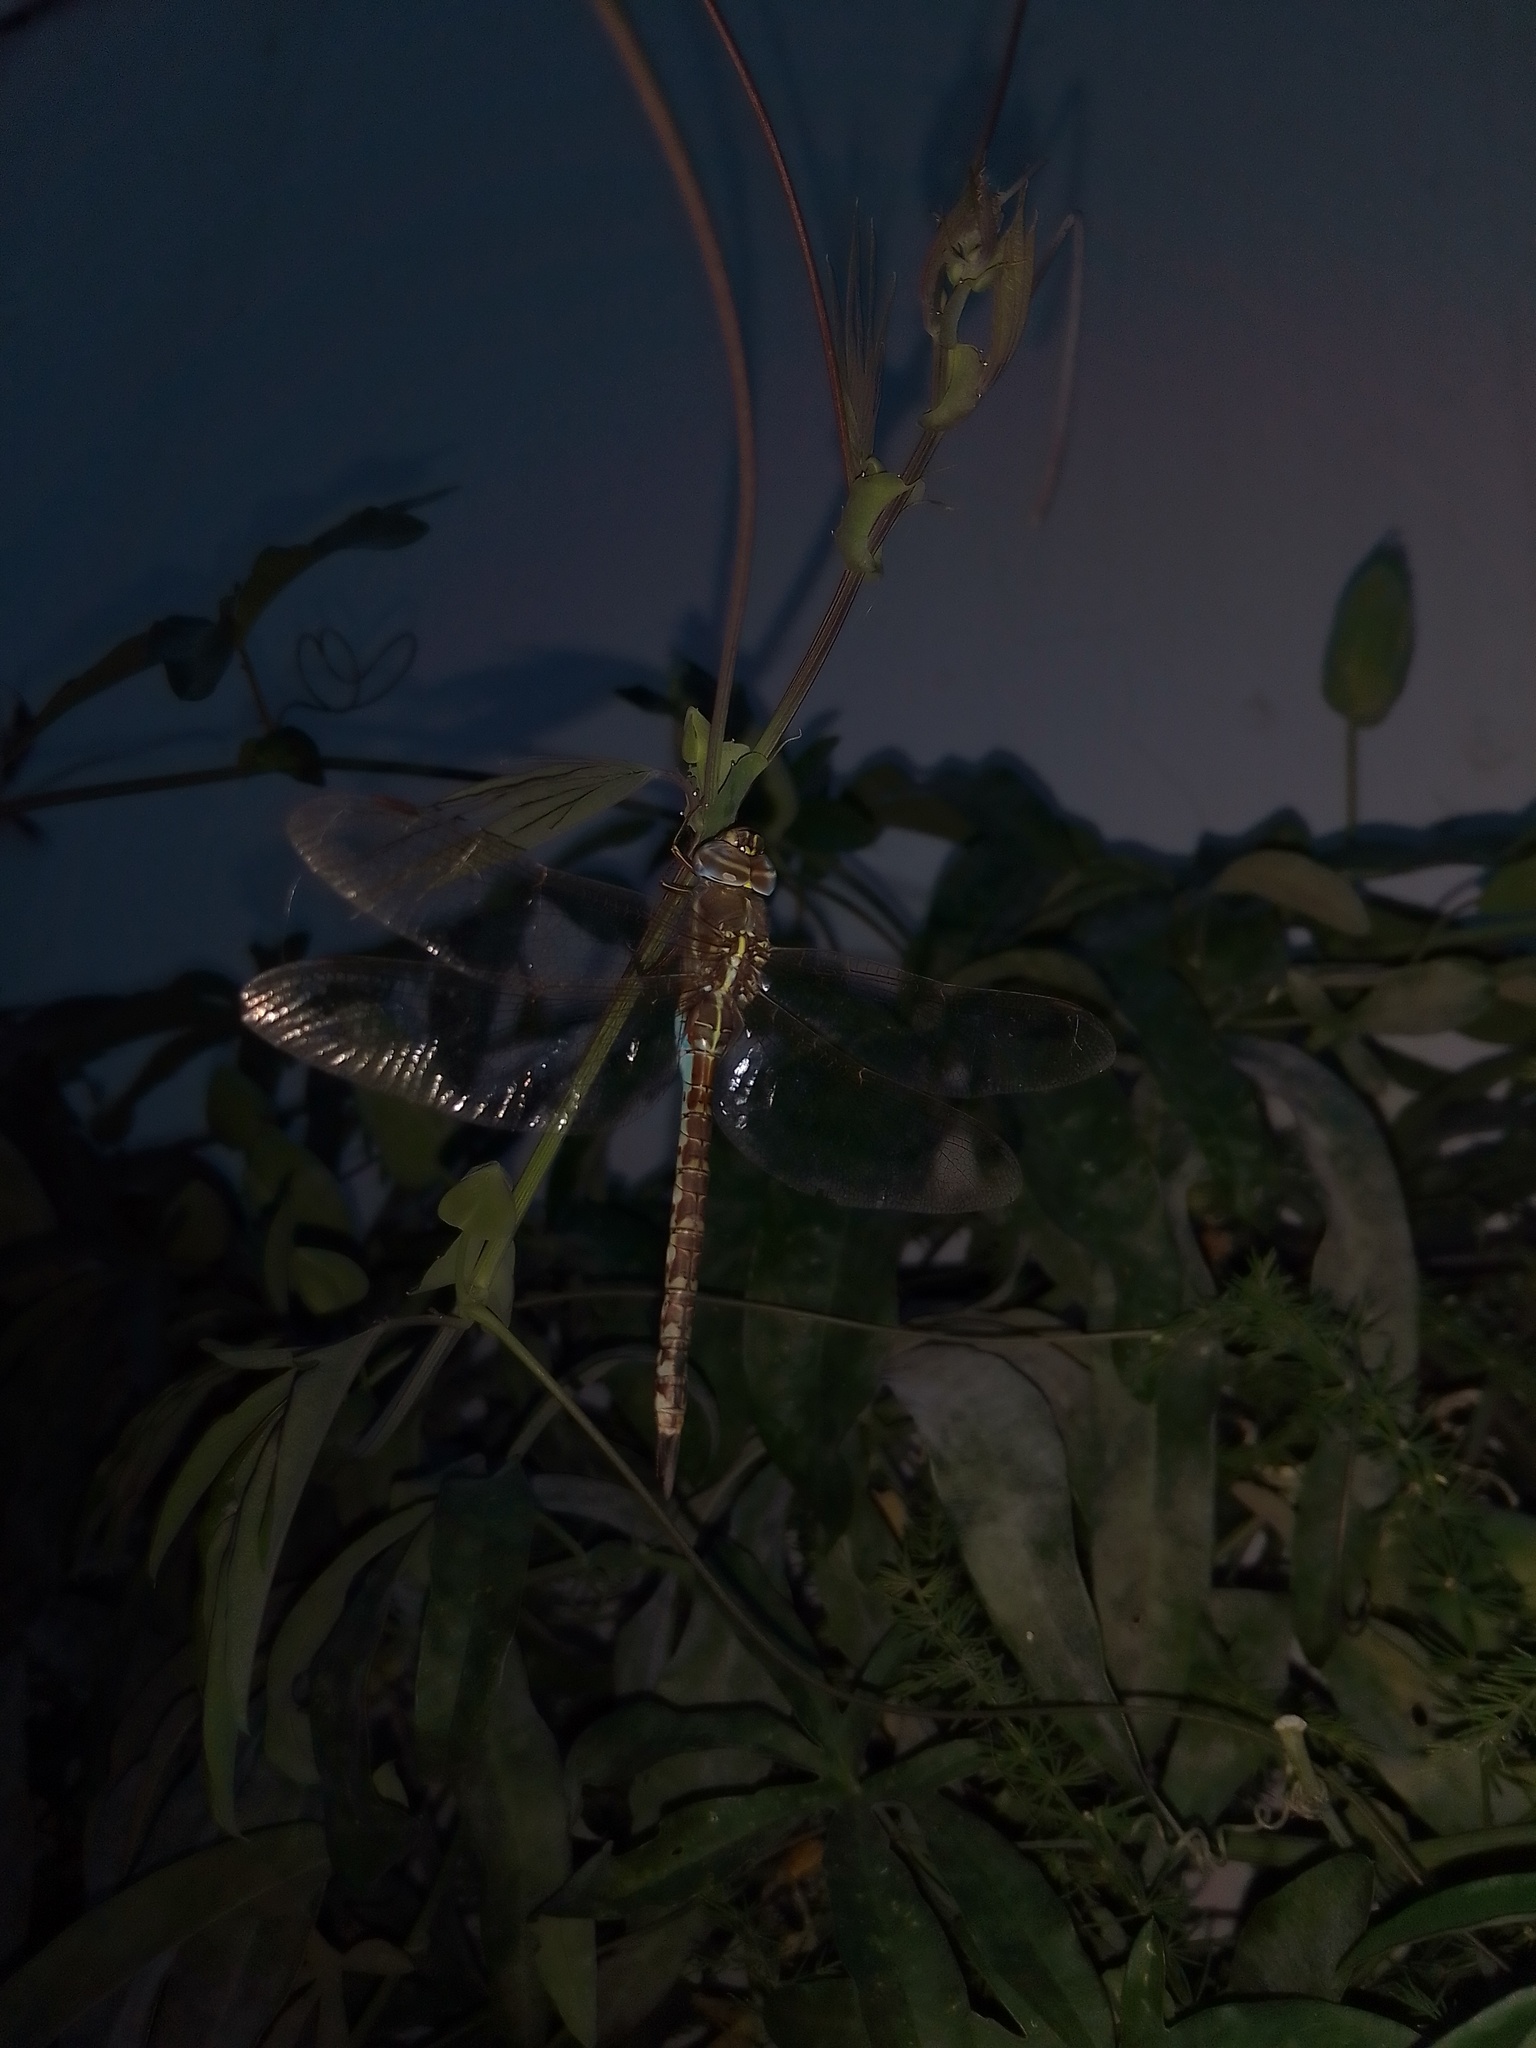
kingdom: Animalia
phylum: Arthropoda
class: Insecta
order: Odonata
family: Aeshnidae
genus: Rhionaeschna
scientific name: Rhionaeschna bonariensis
